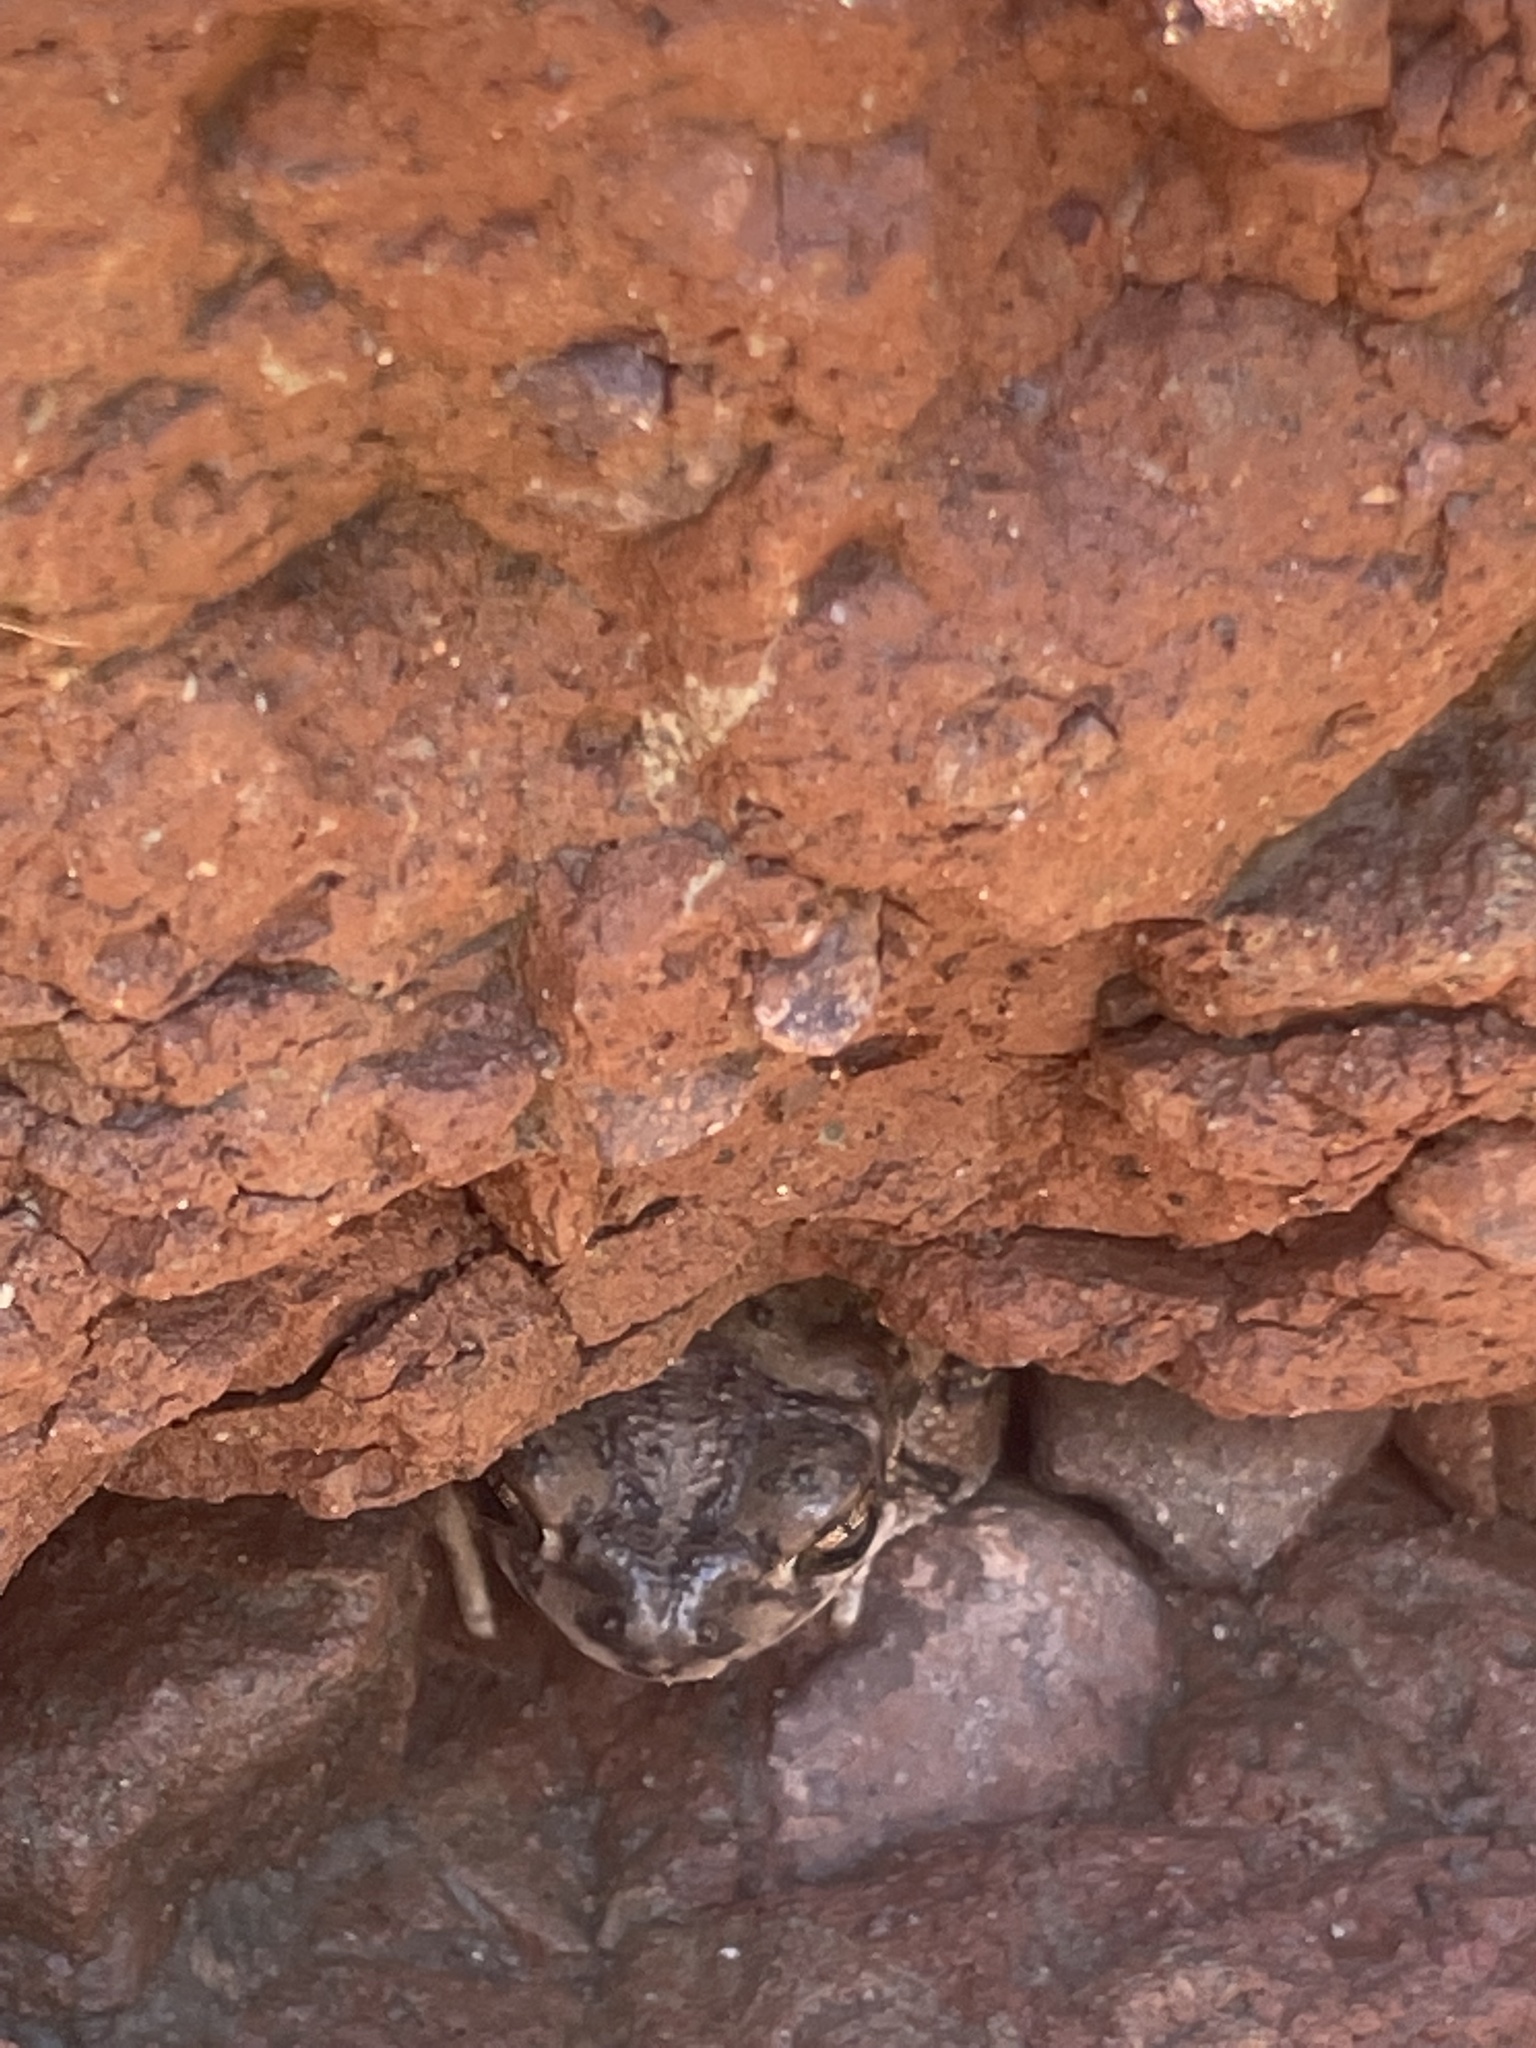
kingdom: Animalia
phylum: Chordata
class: Amphibia
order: Anura
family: Bufonidae
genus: Anaxyrus
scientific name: Anaxyrus punctatus
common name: Red-spotted toad
